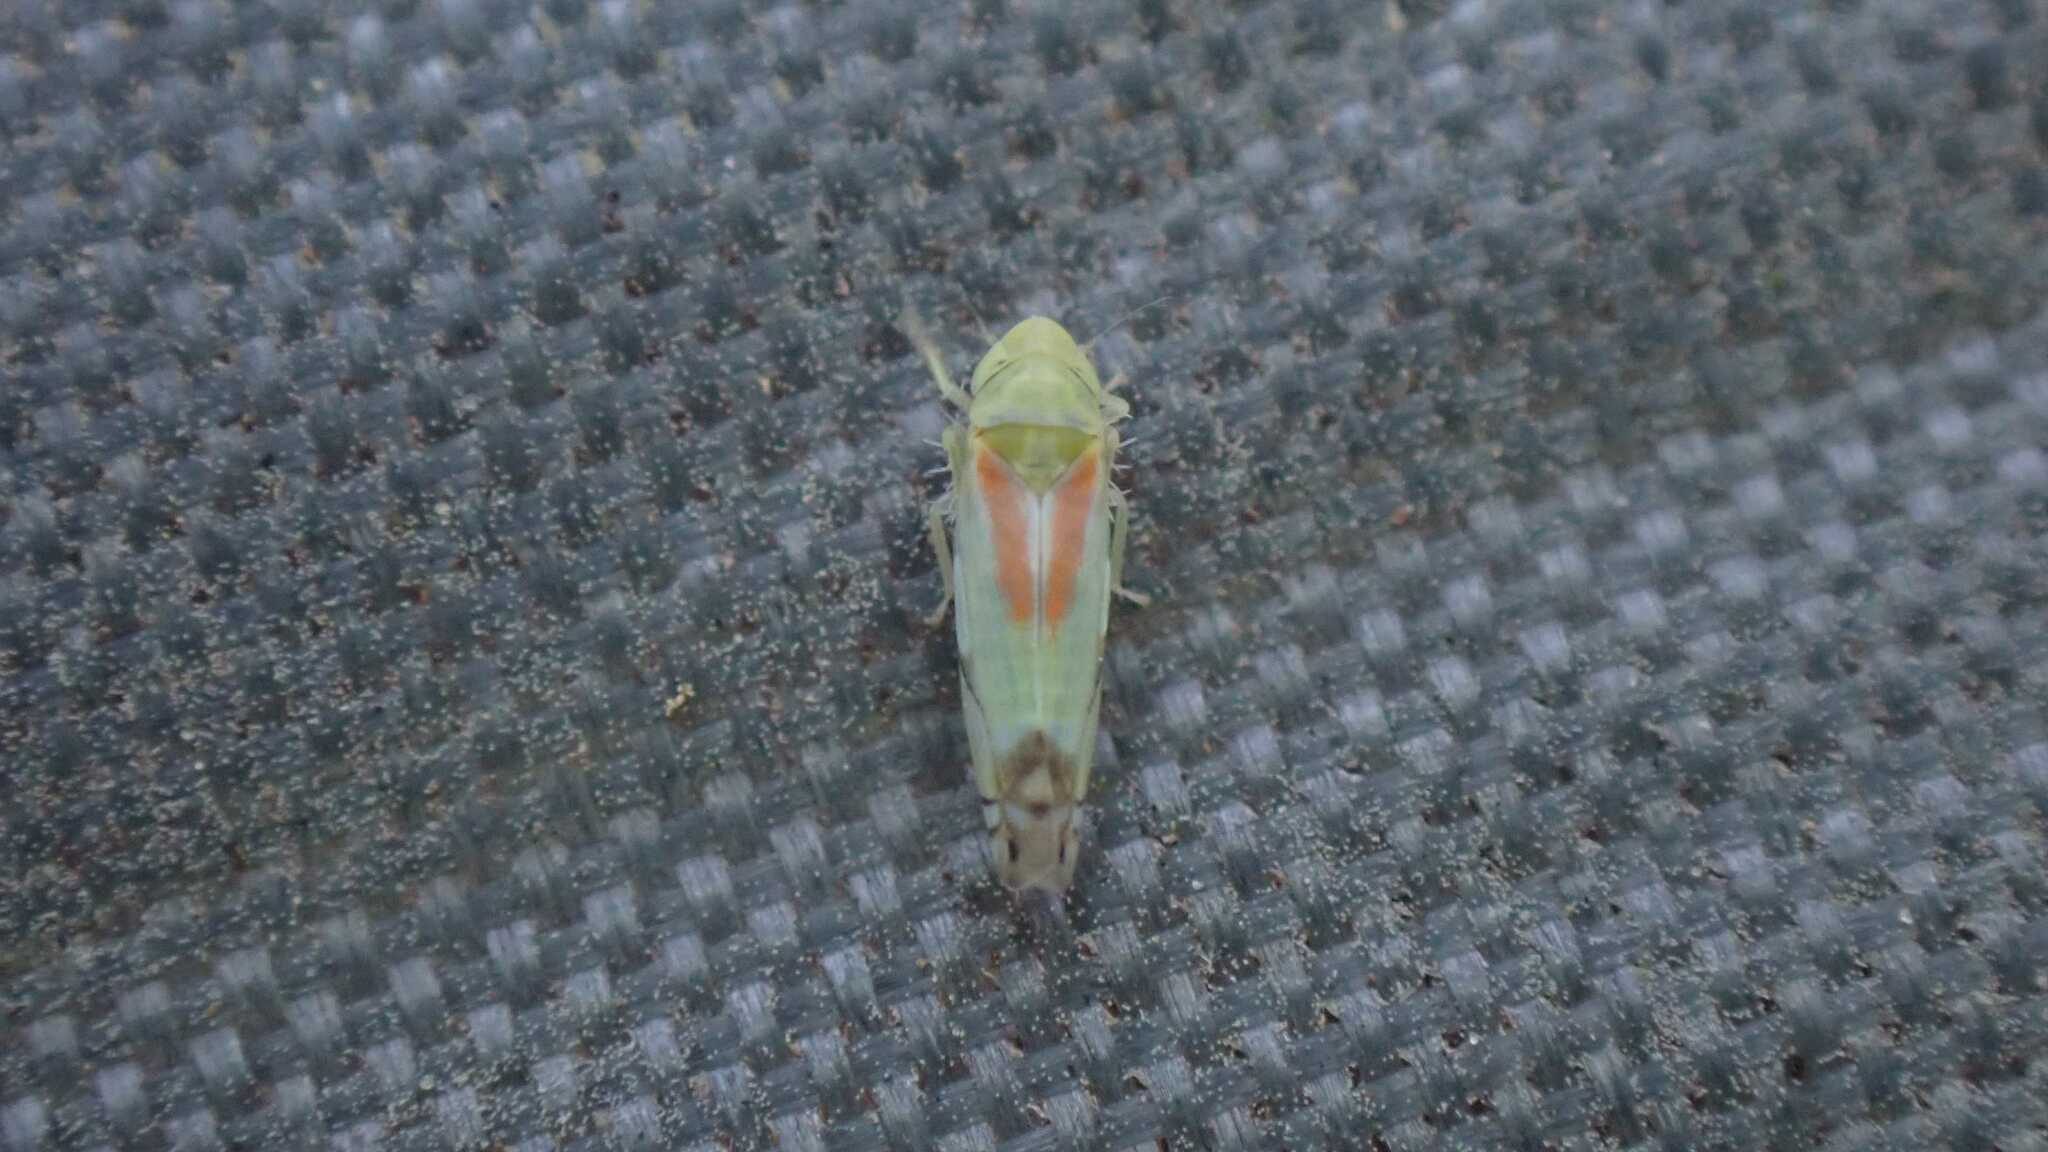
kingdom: Animalia
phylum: Arthropoda
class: Insecta
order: Hemiptera
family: Cicadellidae
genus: Zyginella
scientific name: Zyginella pulchra
